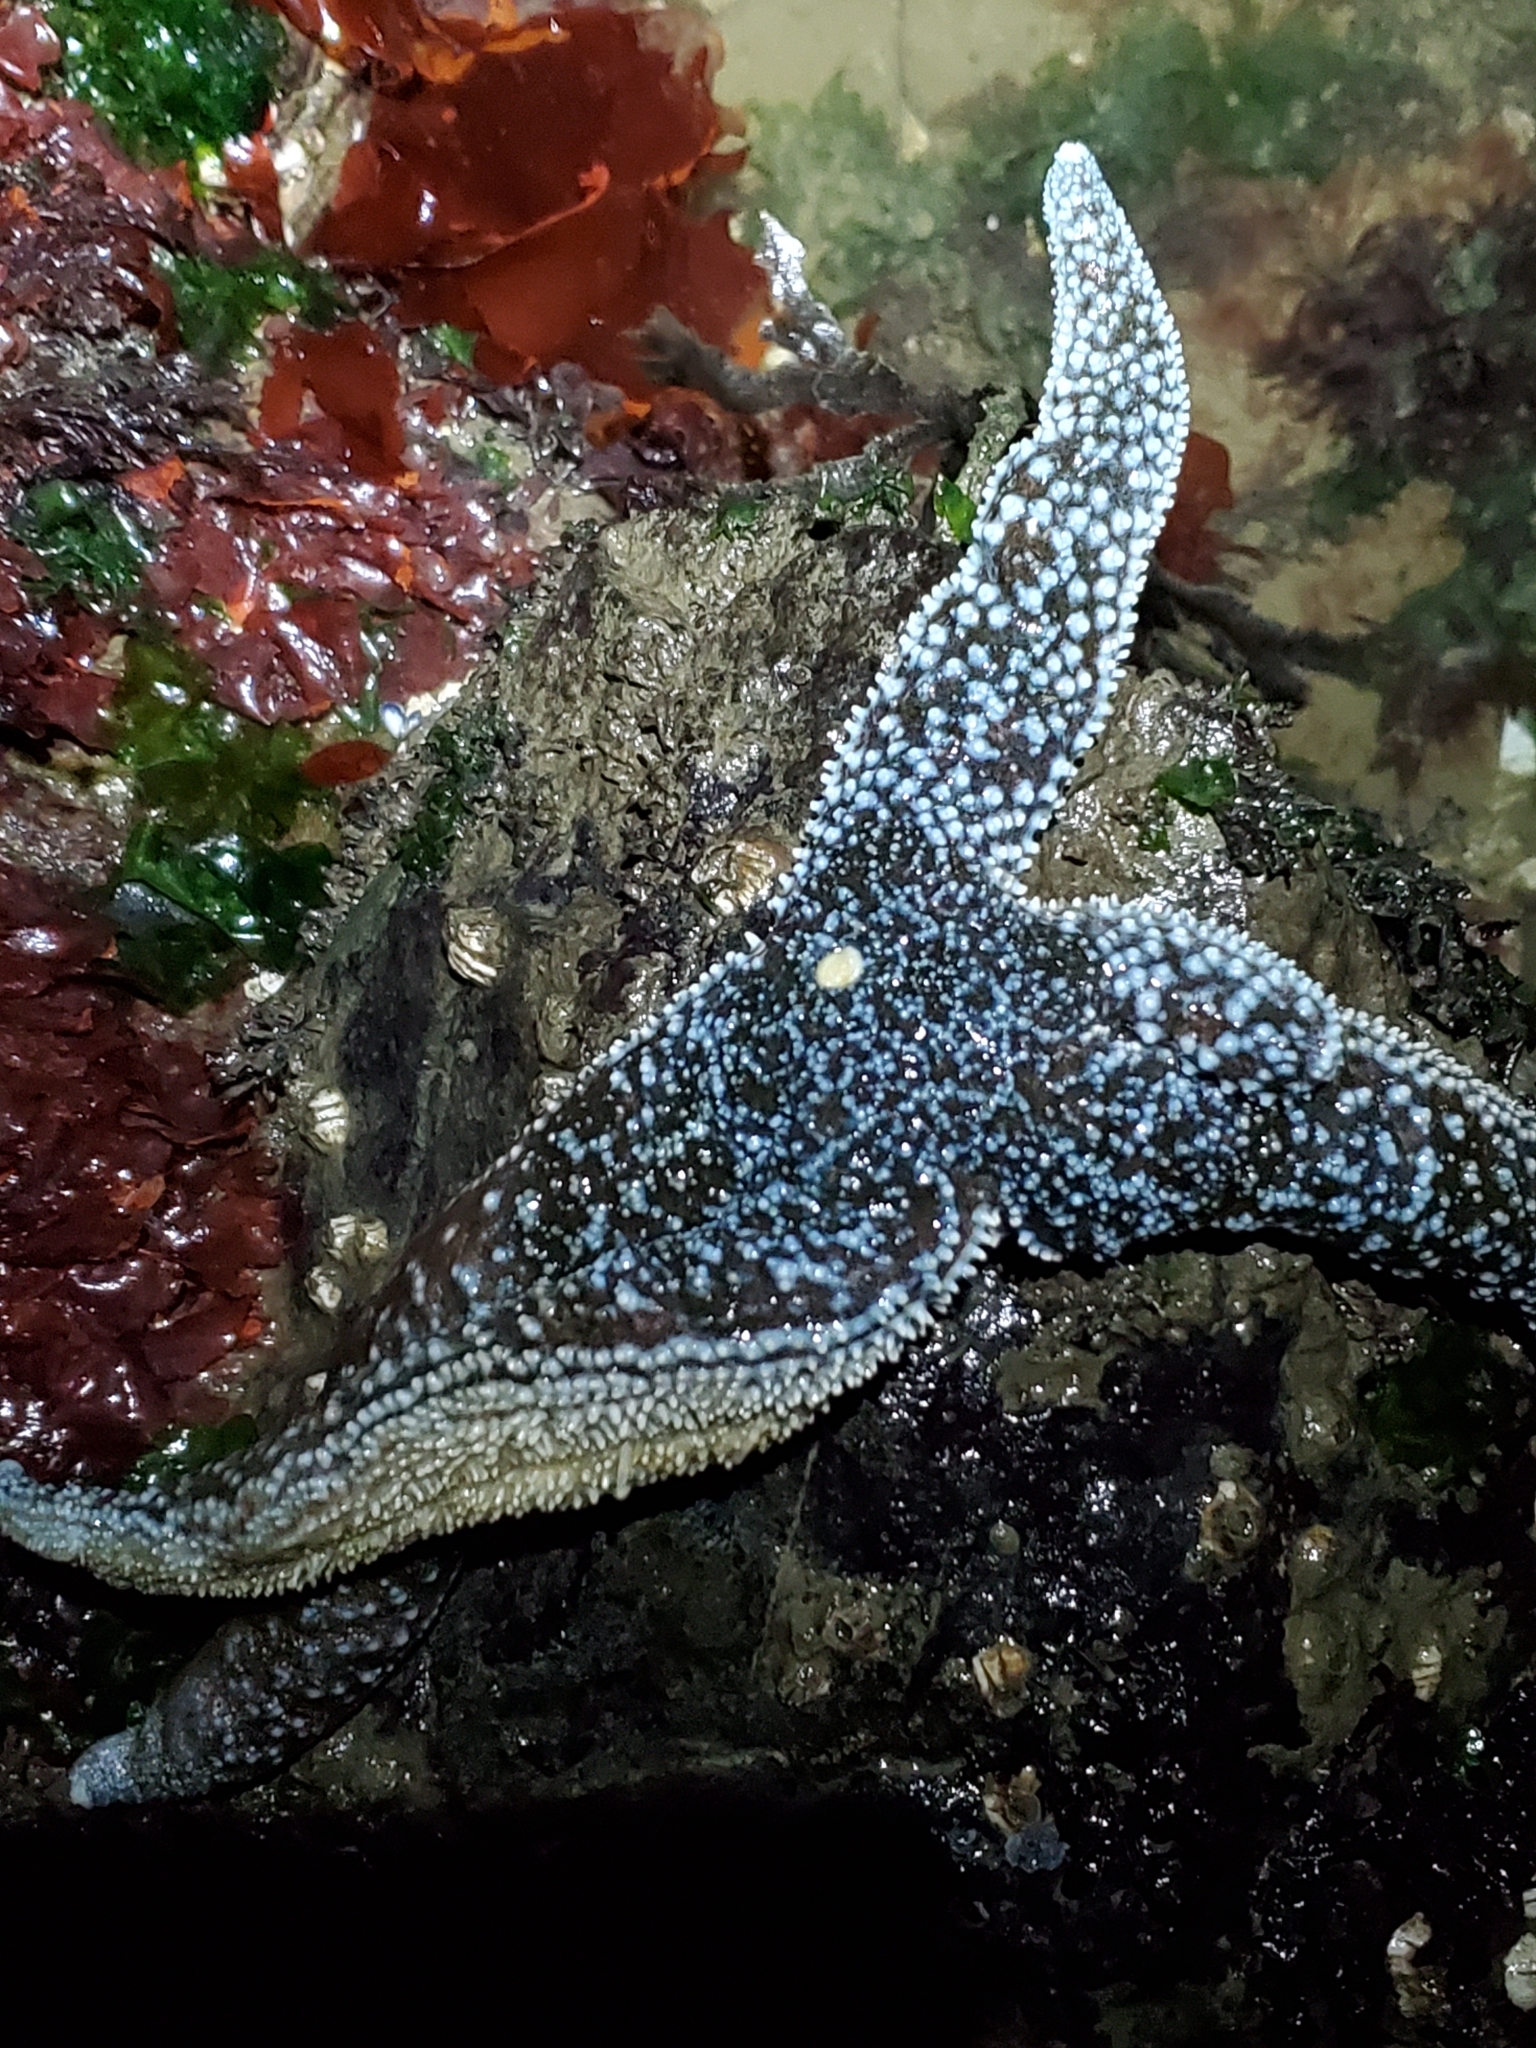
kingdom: Animalia
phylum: Echinodermata
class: Asteroidea
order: Forcipulatida
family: Asteriidae
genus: Evasterias
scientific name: Evasterias troschelii
